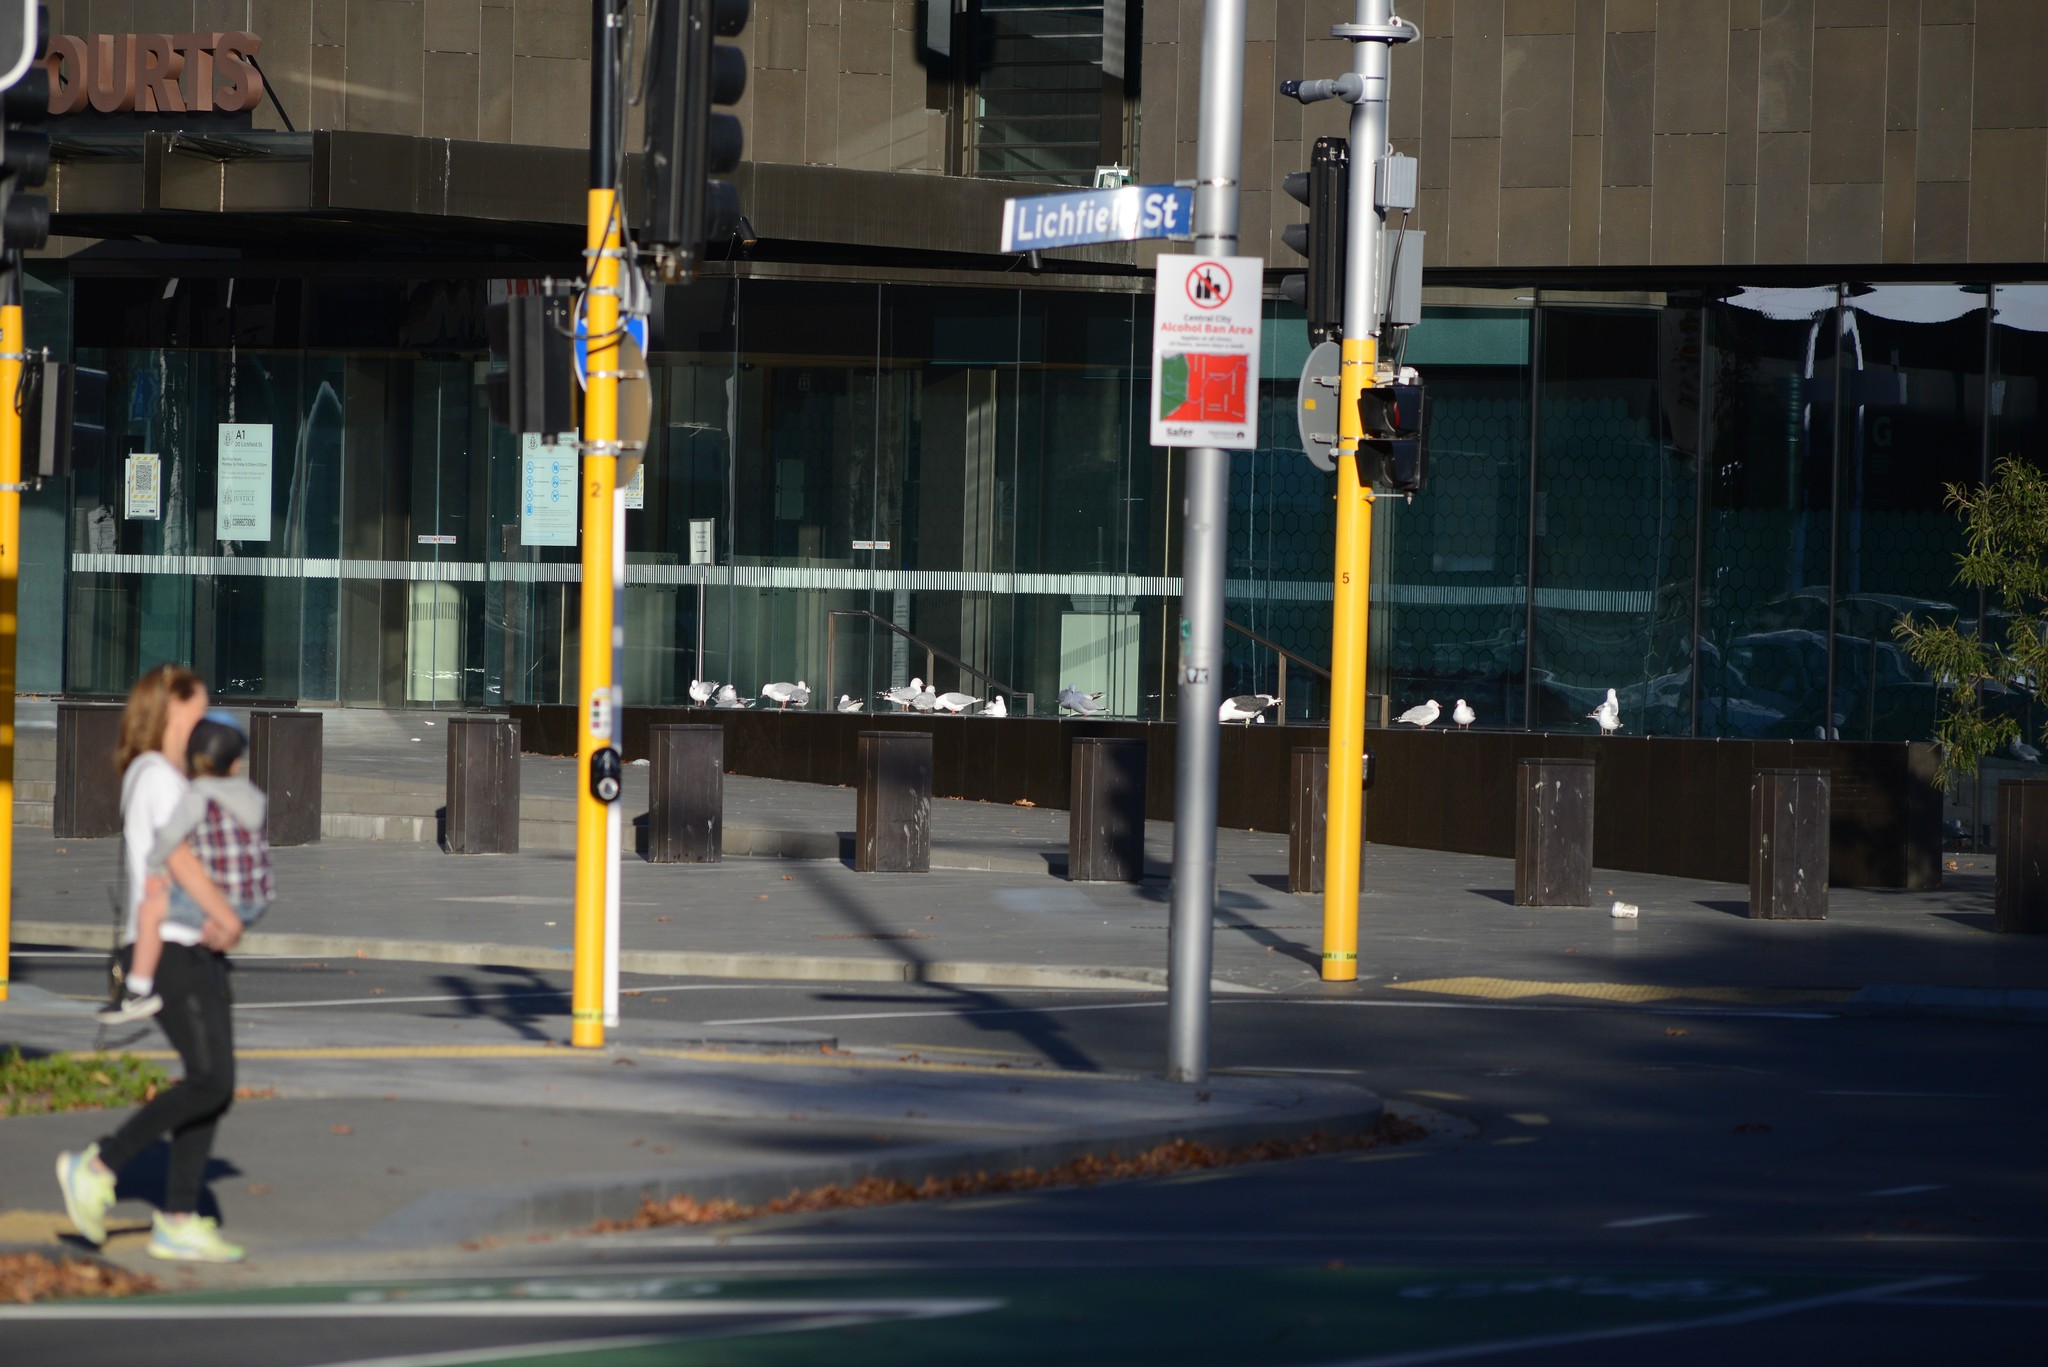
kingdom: Animalia
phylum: Chordata
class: Aves
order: Charadriiformes
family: Laridae
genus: Chroicocephalus
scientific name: Chroicocephalus novaehollandiae
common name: Silver gull
